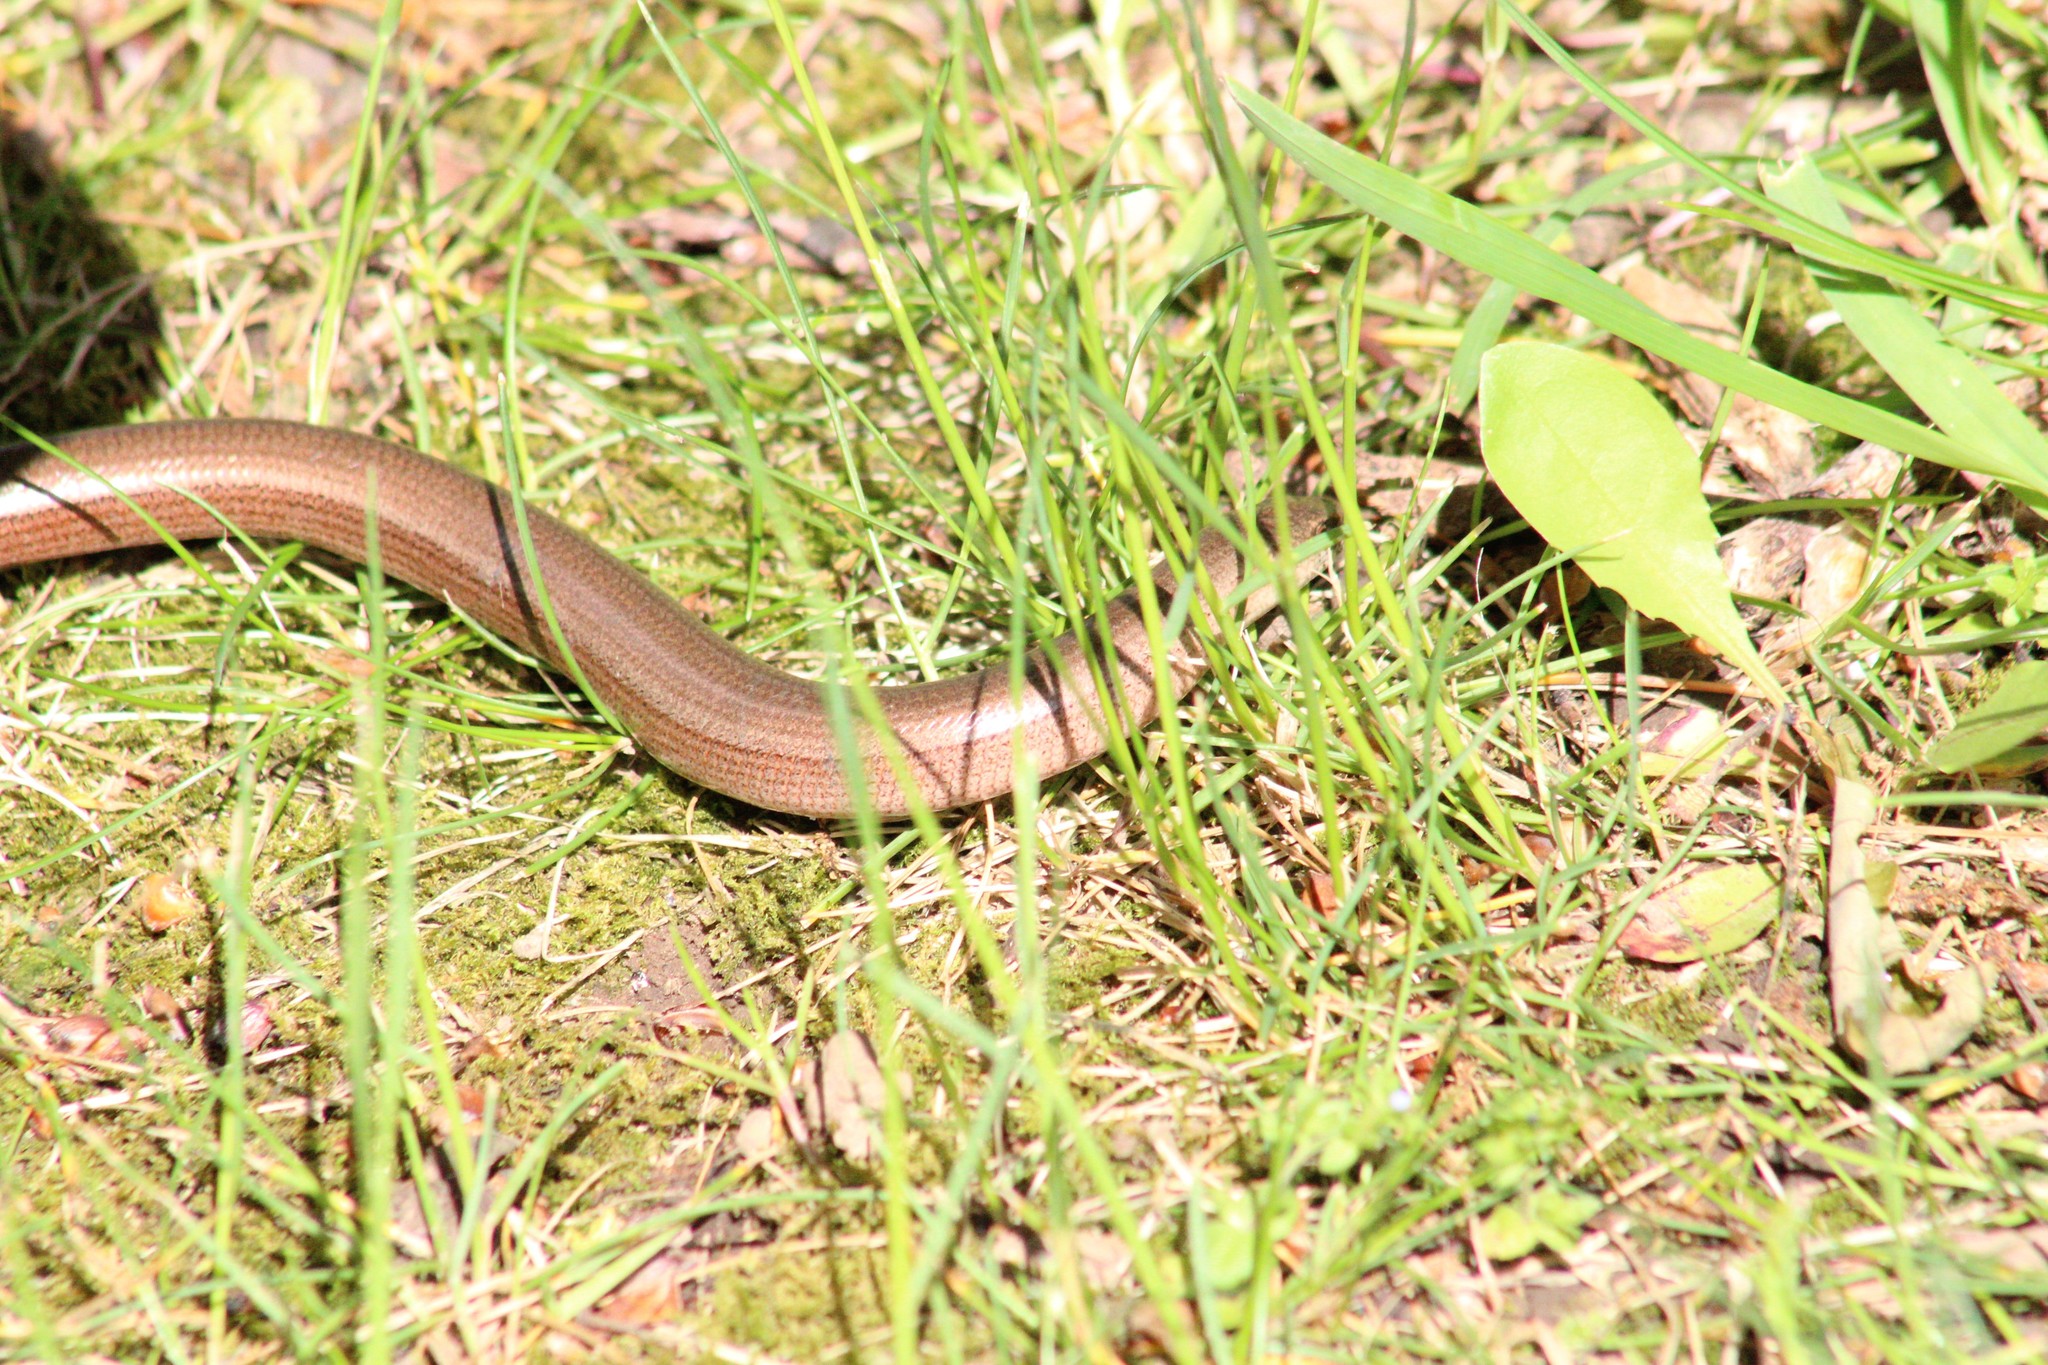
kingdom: Animalia
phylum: Chordata
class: Squamata
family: Anguidae
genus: Anguis
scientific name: Anguis fragilis
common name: Slow worm
